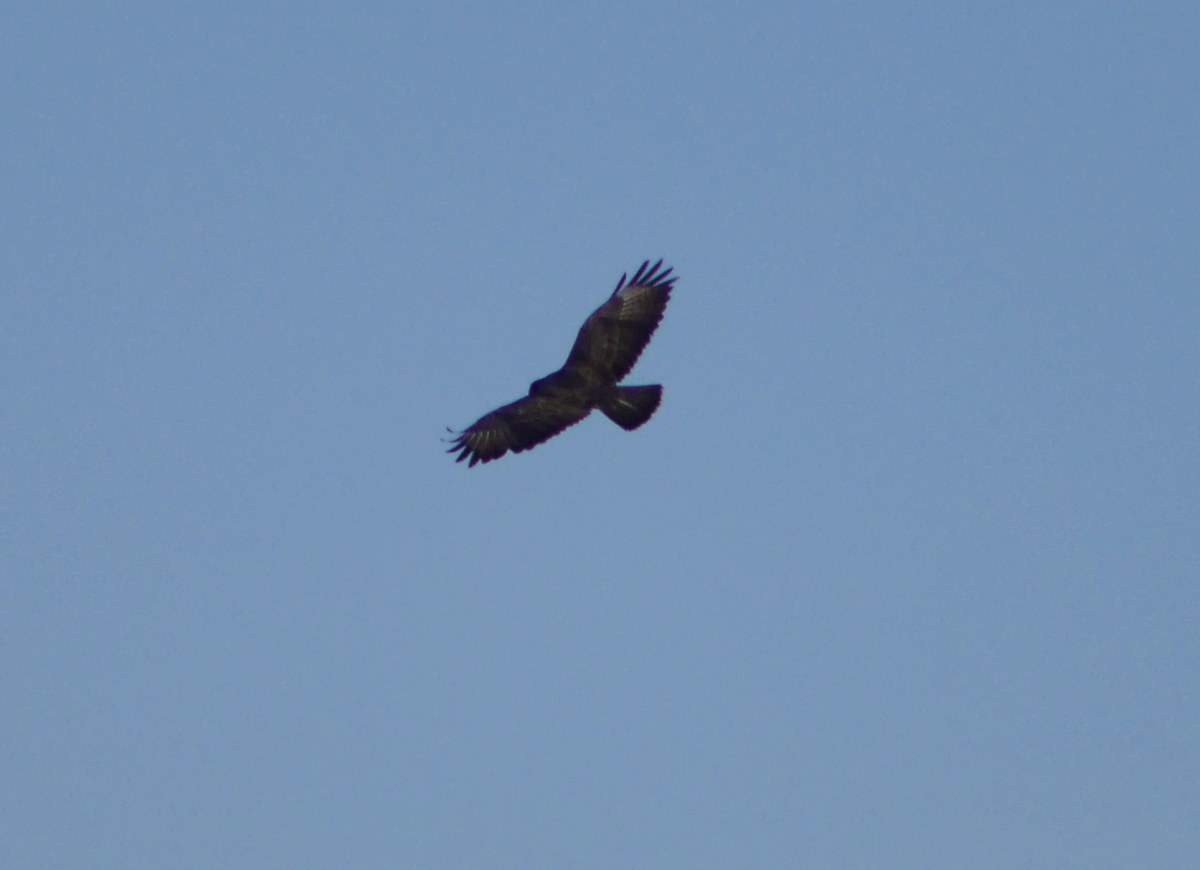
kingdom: Animalia
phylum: Chordata
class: Aves
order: Accipitriformes
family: Accipitridae
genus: Buteo
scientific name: Buteo buteo
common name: Common buzzard
